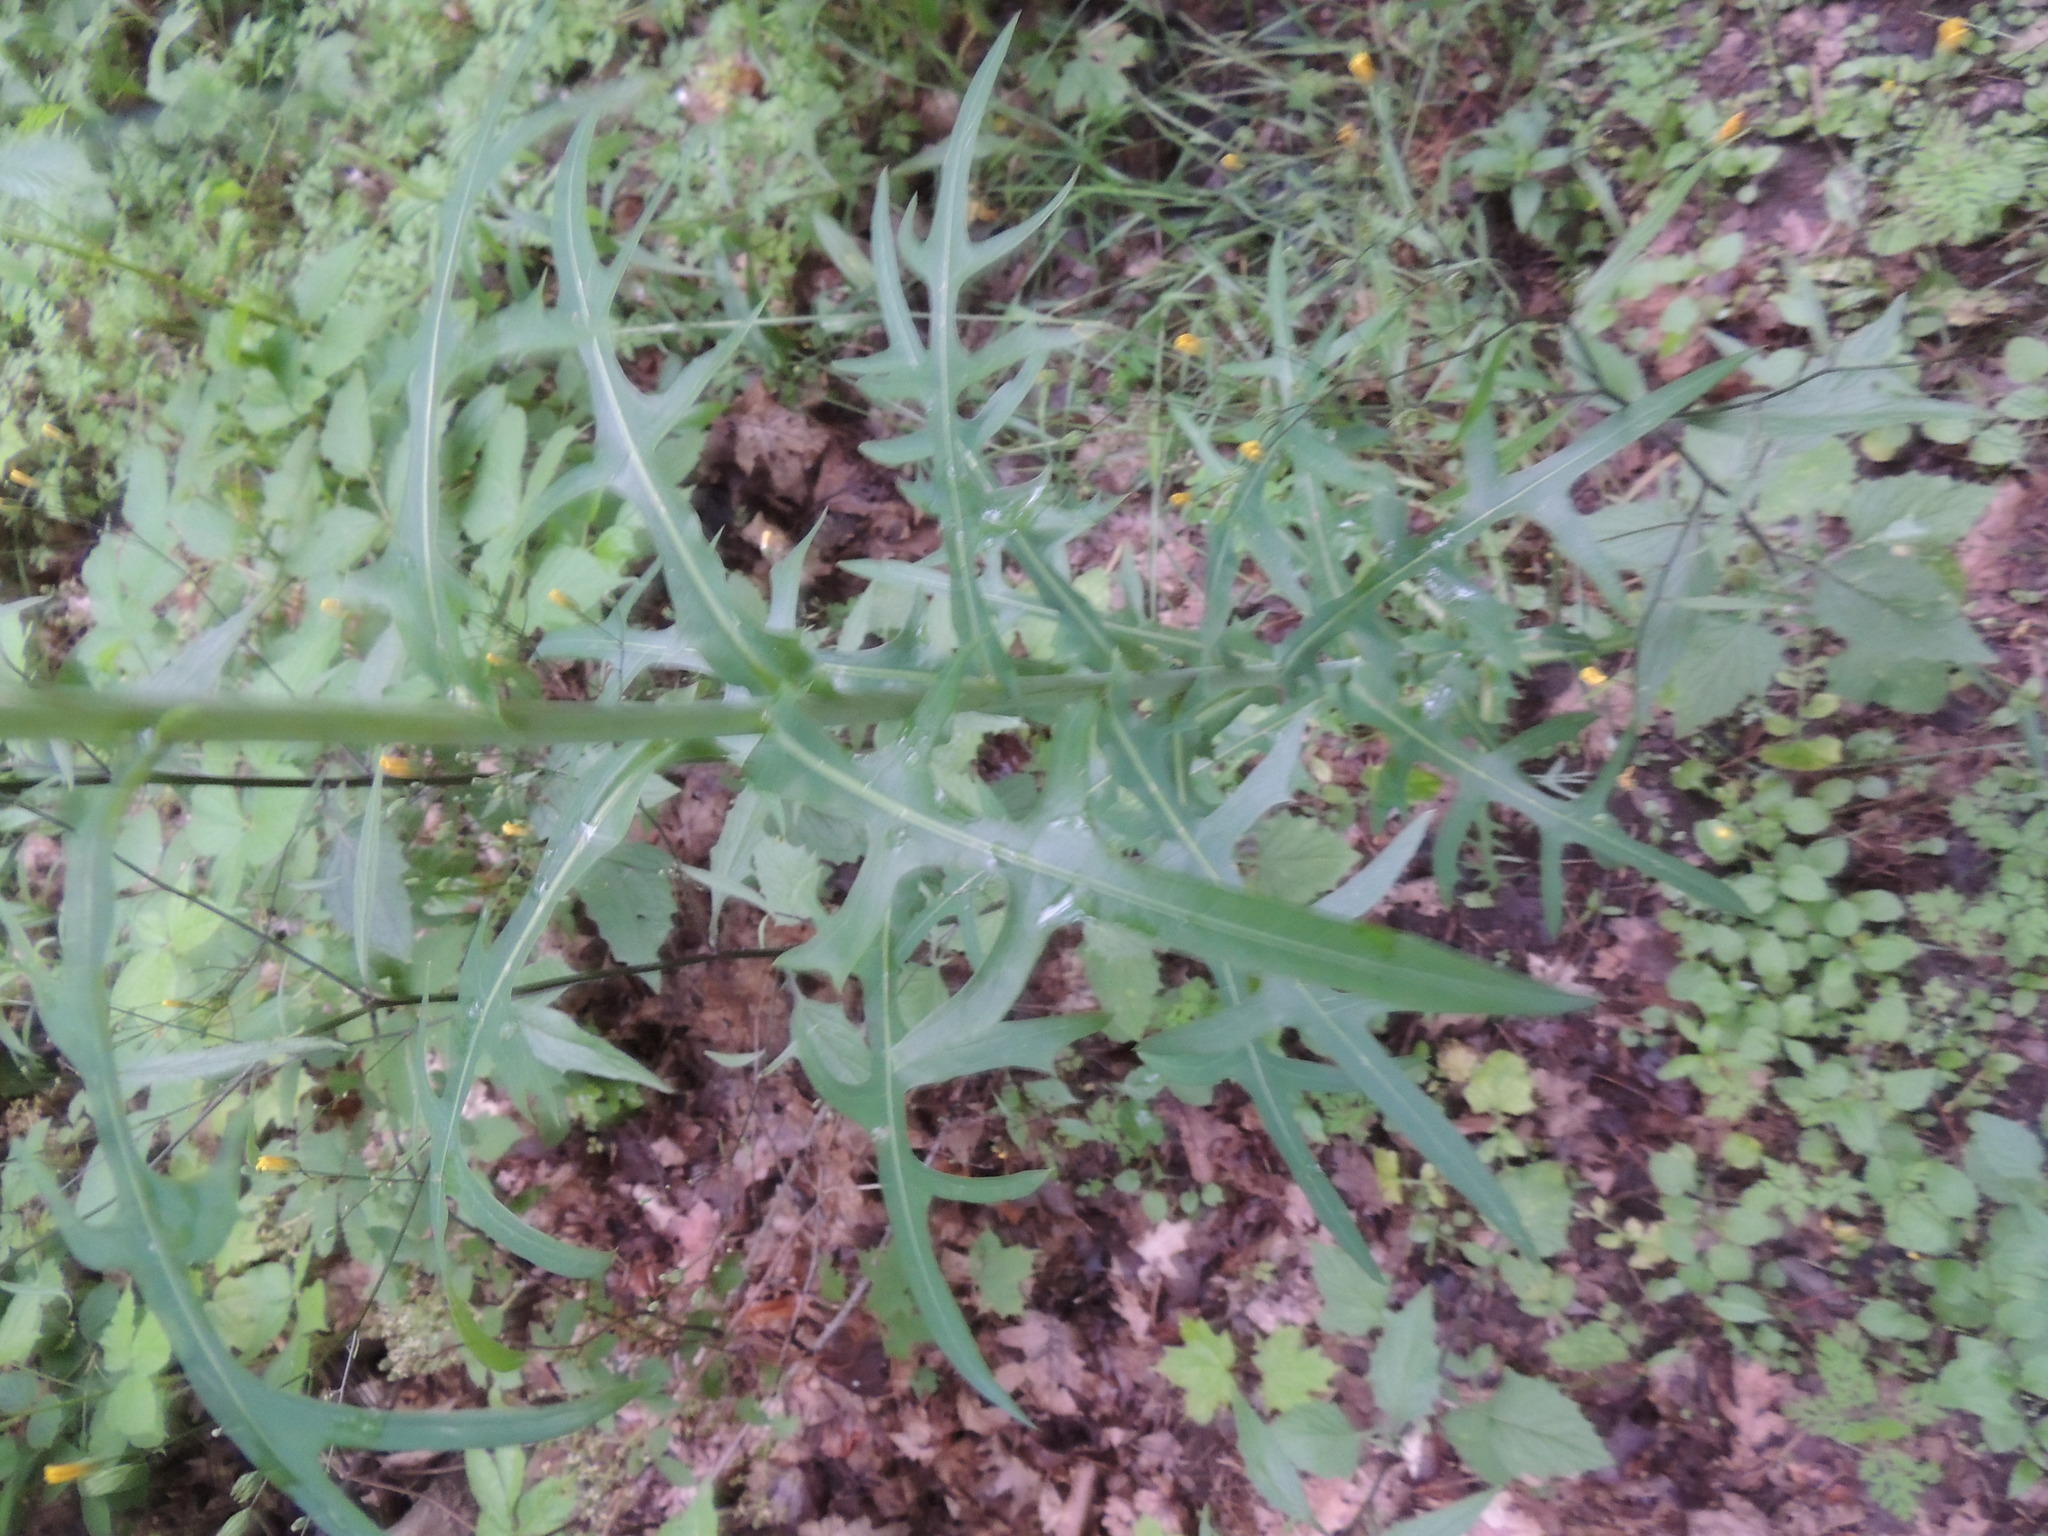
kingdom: Plantae
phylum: Tracheophyta
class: Magnoliopsida
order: Asterales
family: Asteraceae
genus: Lactuca
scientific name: Lactuca canadensis
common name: Canada lettuce
